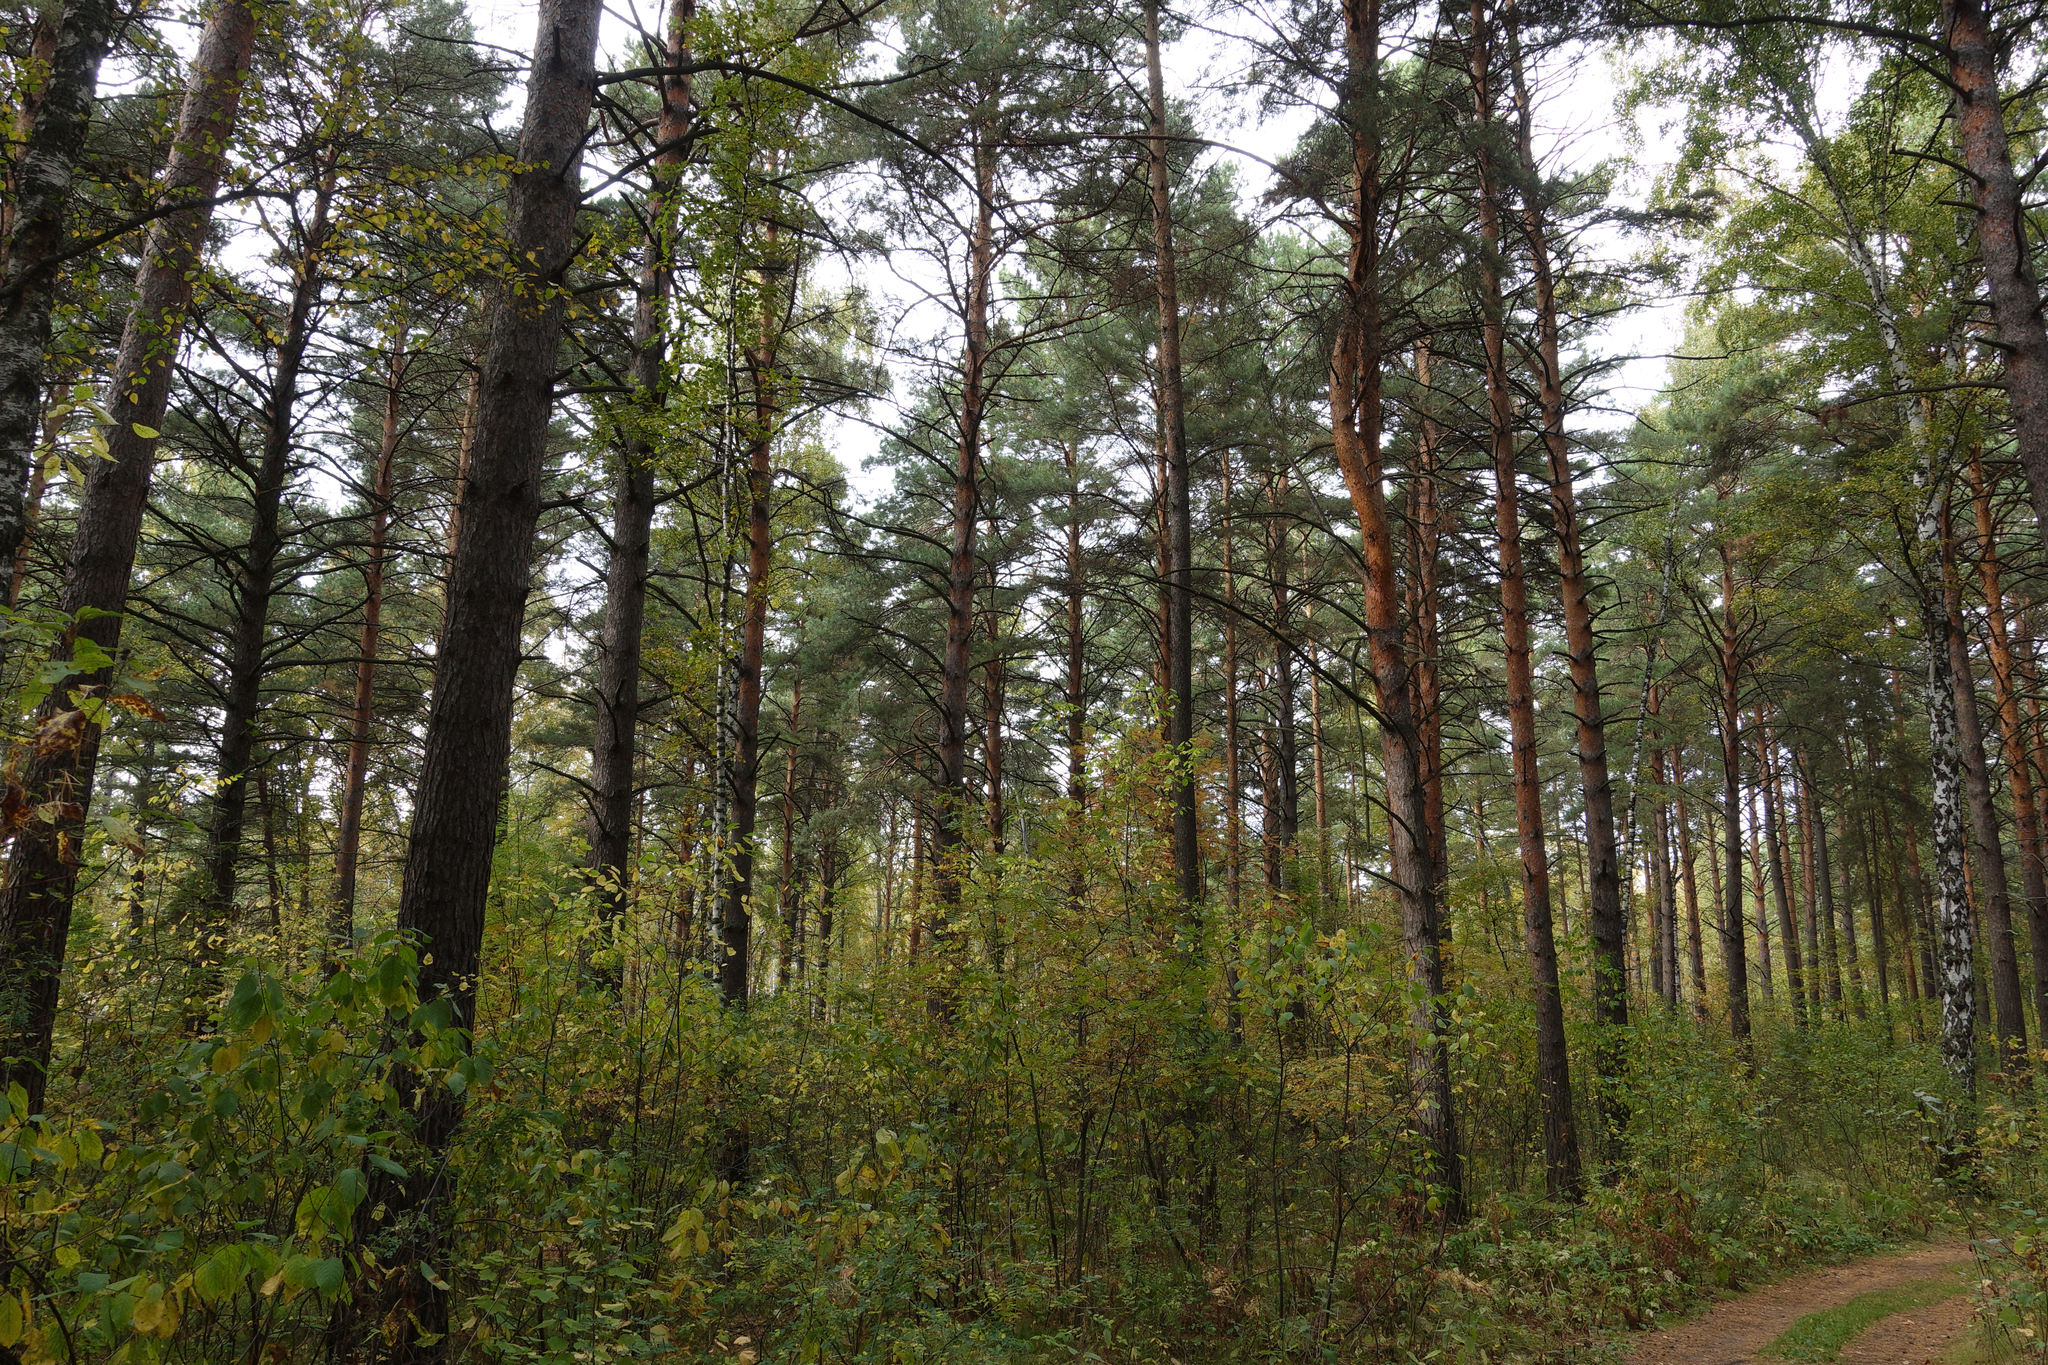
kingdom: Plantae
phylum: Tracheophyta
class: Pinopsida
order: Pinales
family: Pinaceae
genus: Pinus
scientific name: Pinus sylvestris
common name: Scots pine
